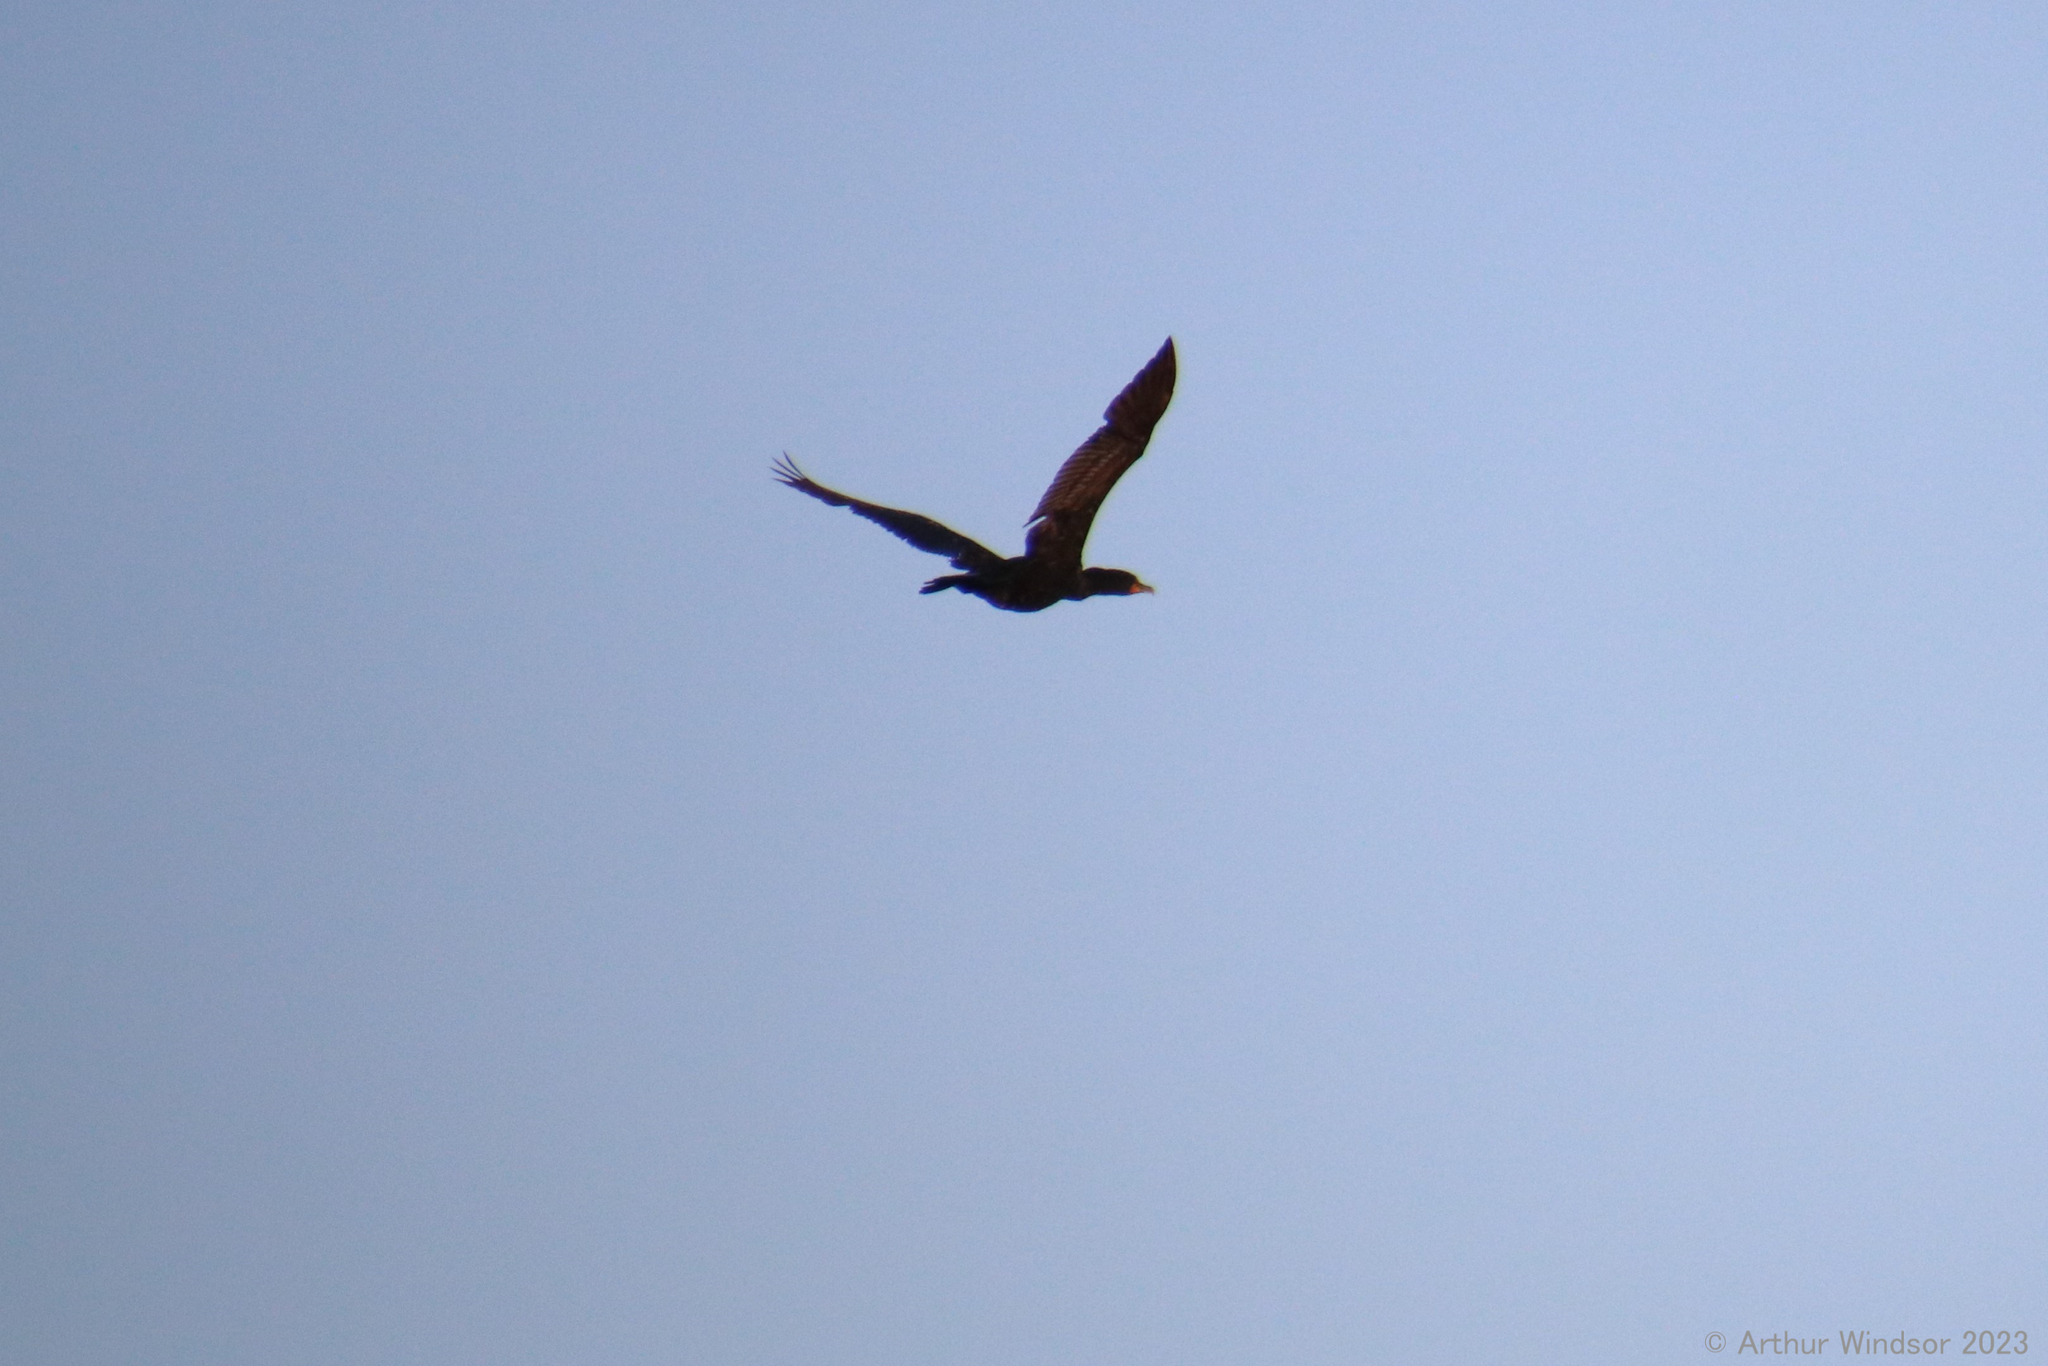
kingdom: Animalia
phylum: Chordata
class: Aves
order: Suliformes
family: Phalacrocoracidae
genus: Phalacrocorax
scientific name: Phalacrocorax auritus
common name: Double-crested cormorant
